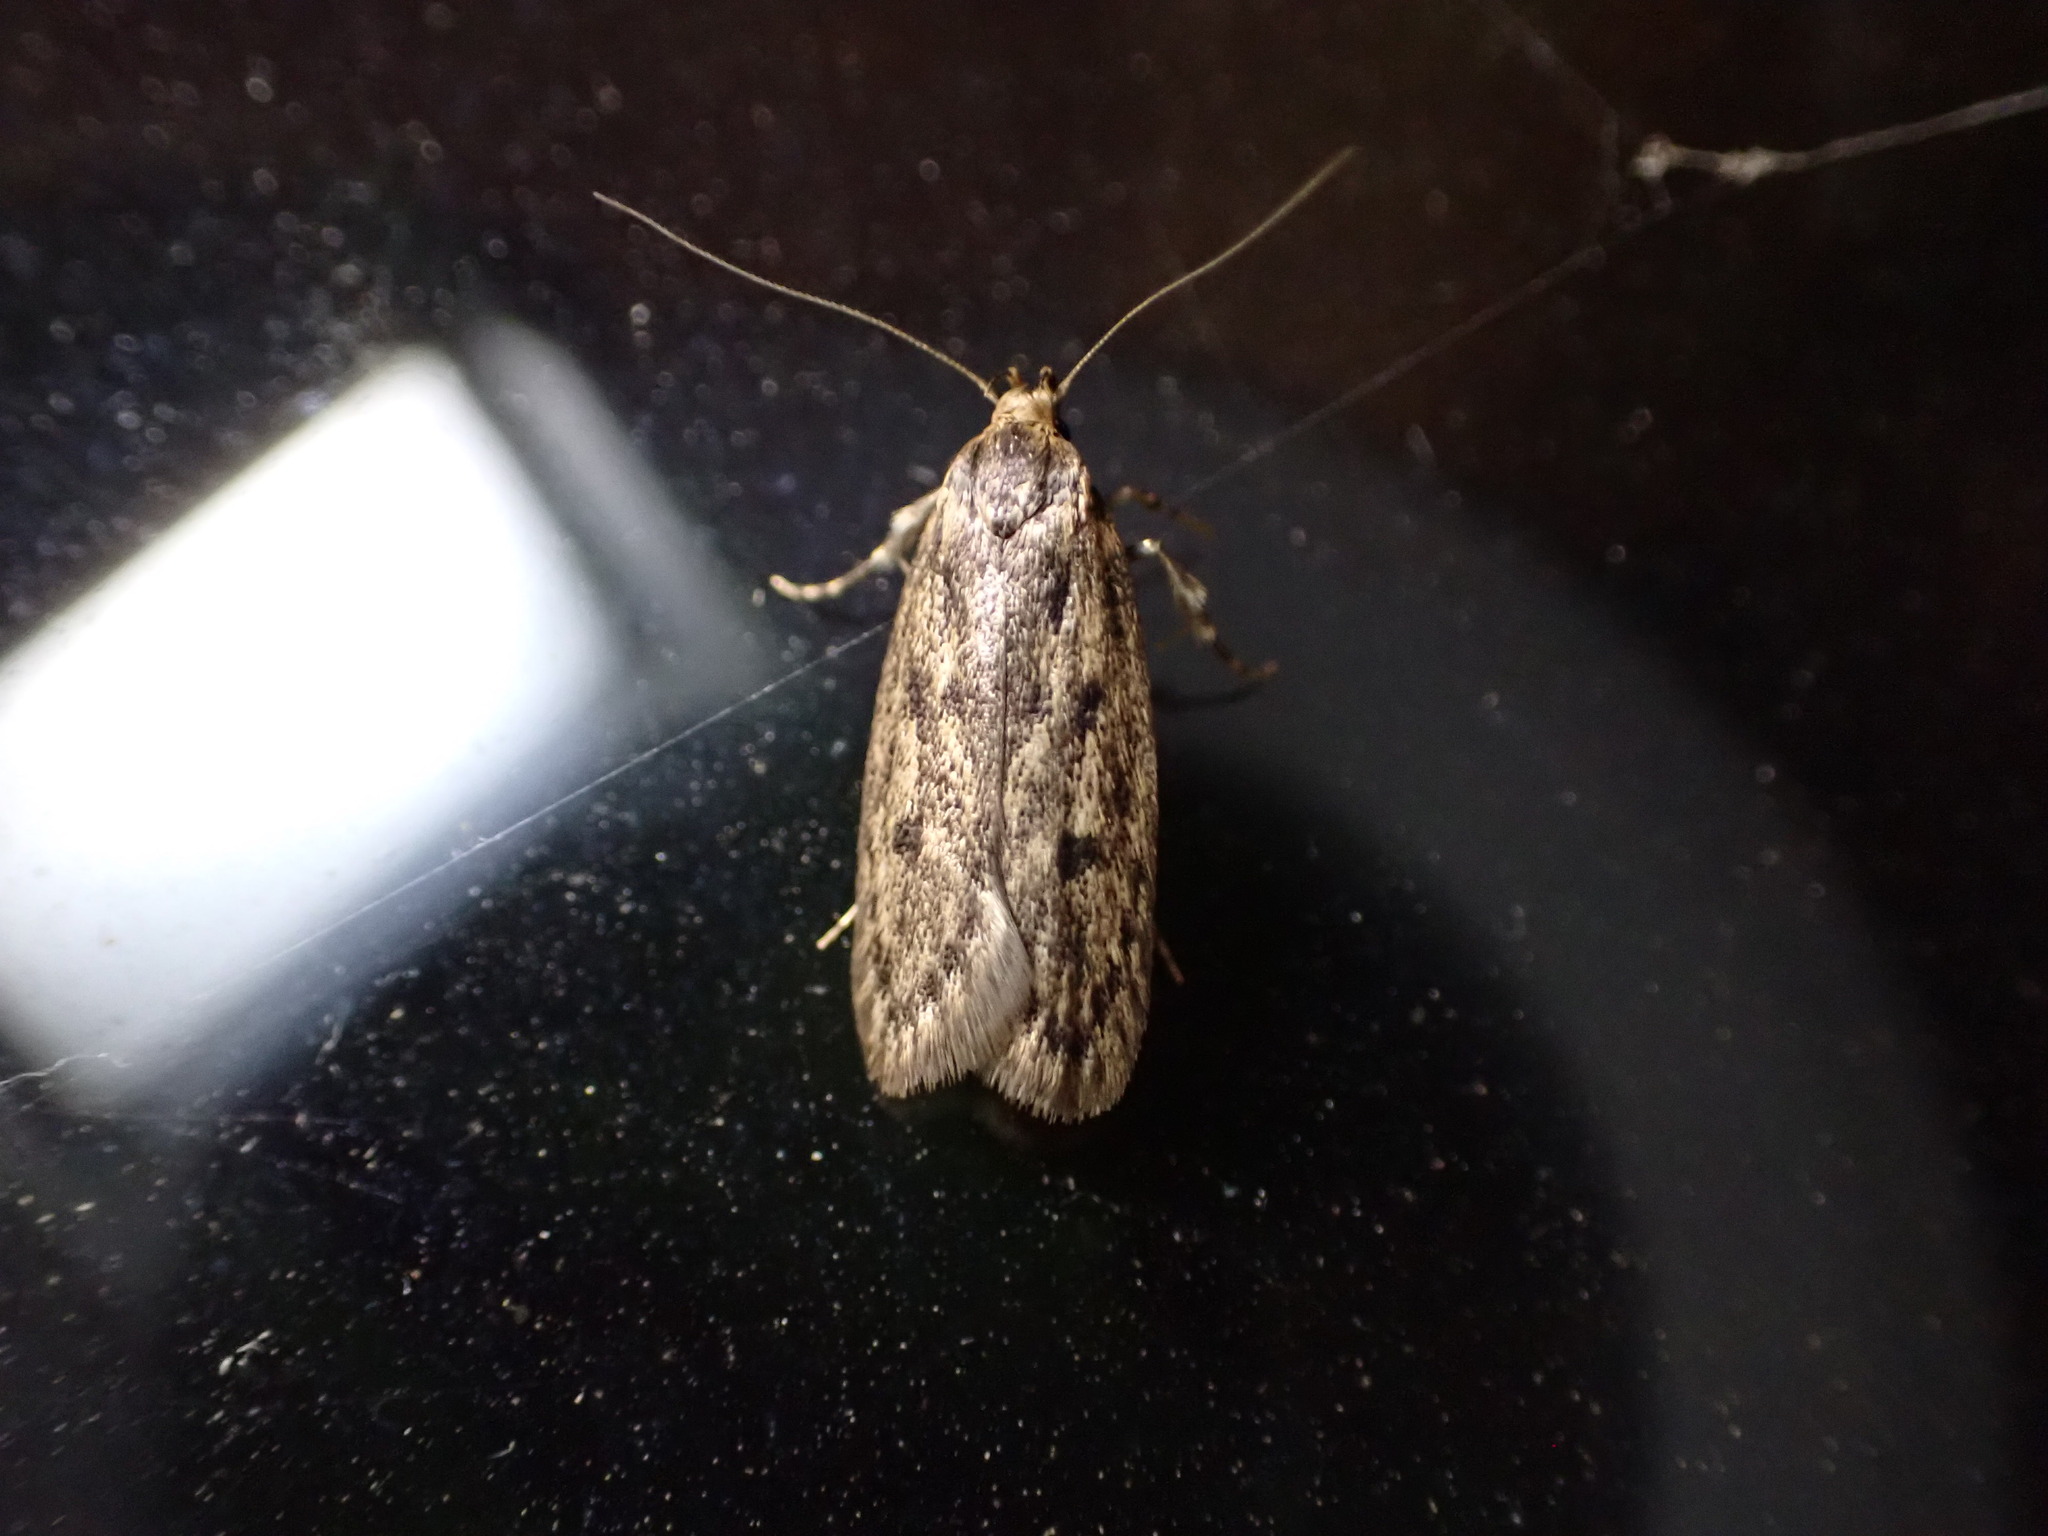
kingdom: Animalia
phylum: Arthropoda
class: Insecta
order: Lepidoptera
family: Oecophoridae
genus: Hofmannophila
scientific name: Hofmannophila pseudospretella
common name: Brown house moth
